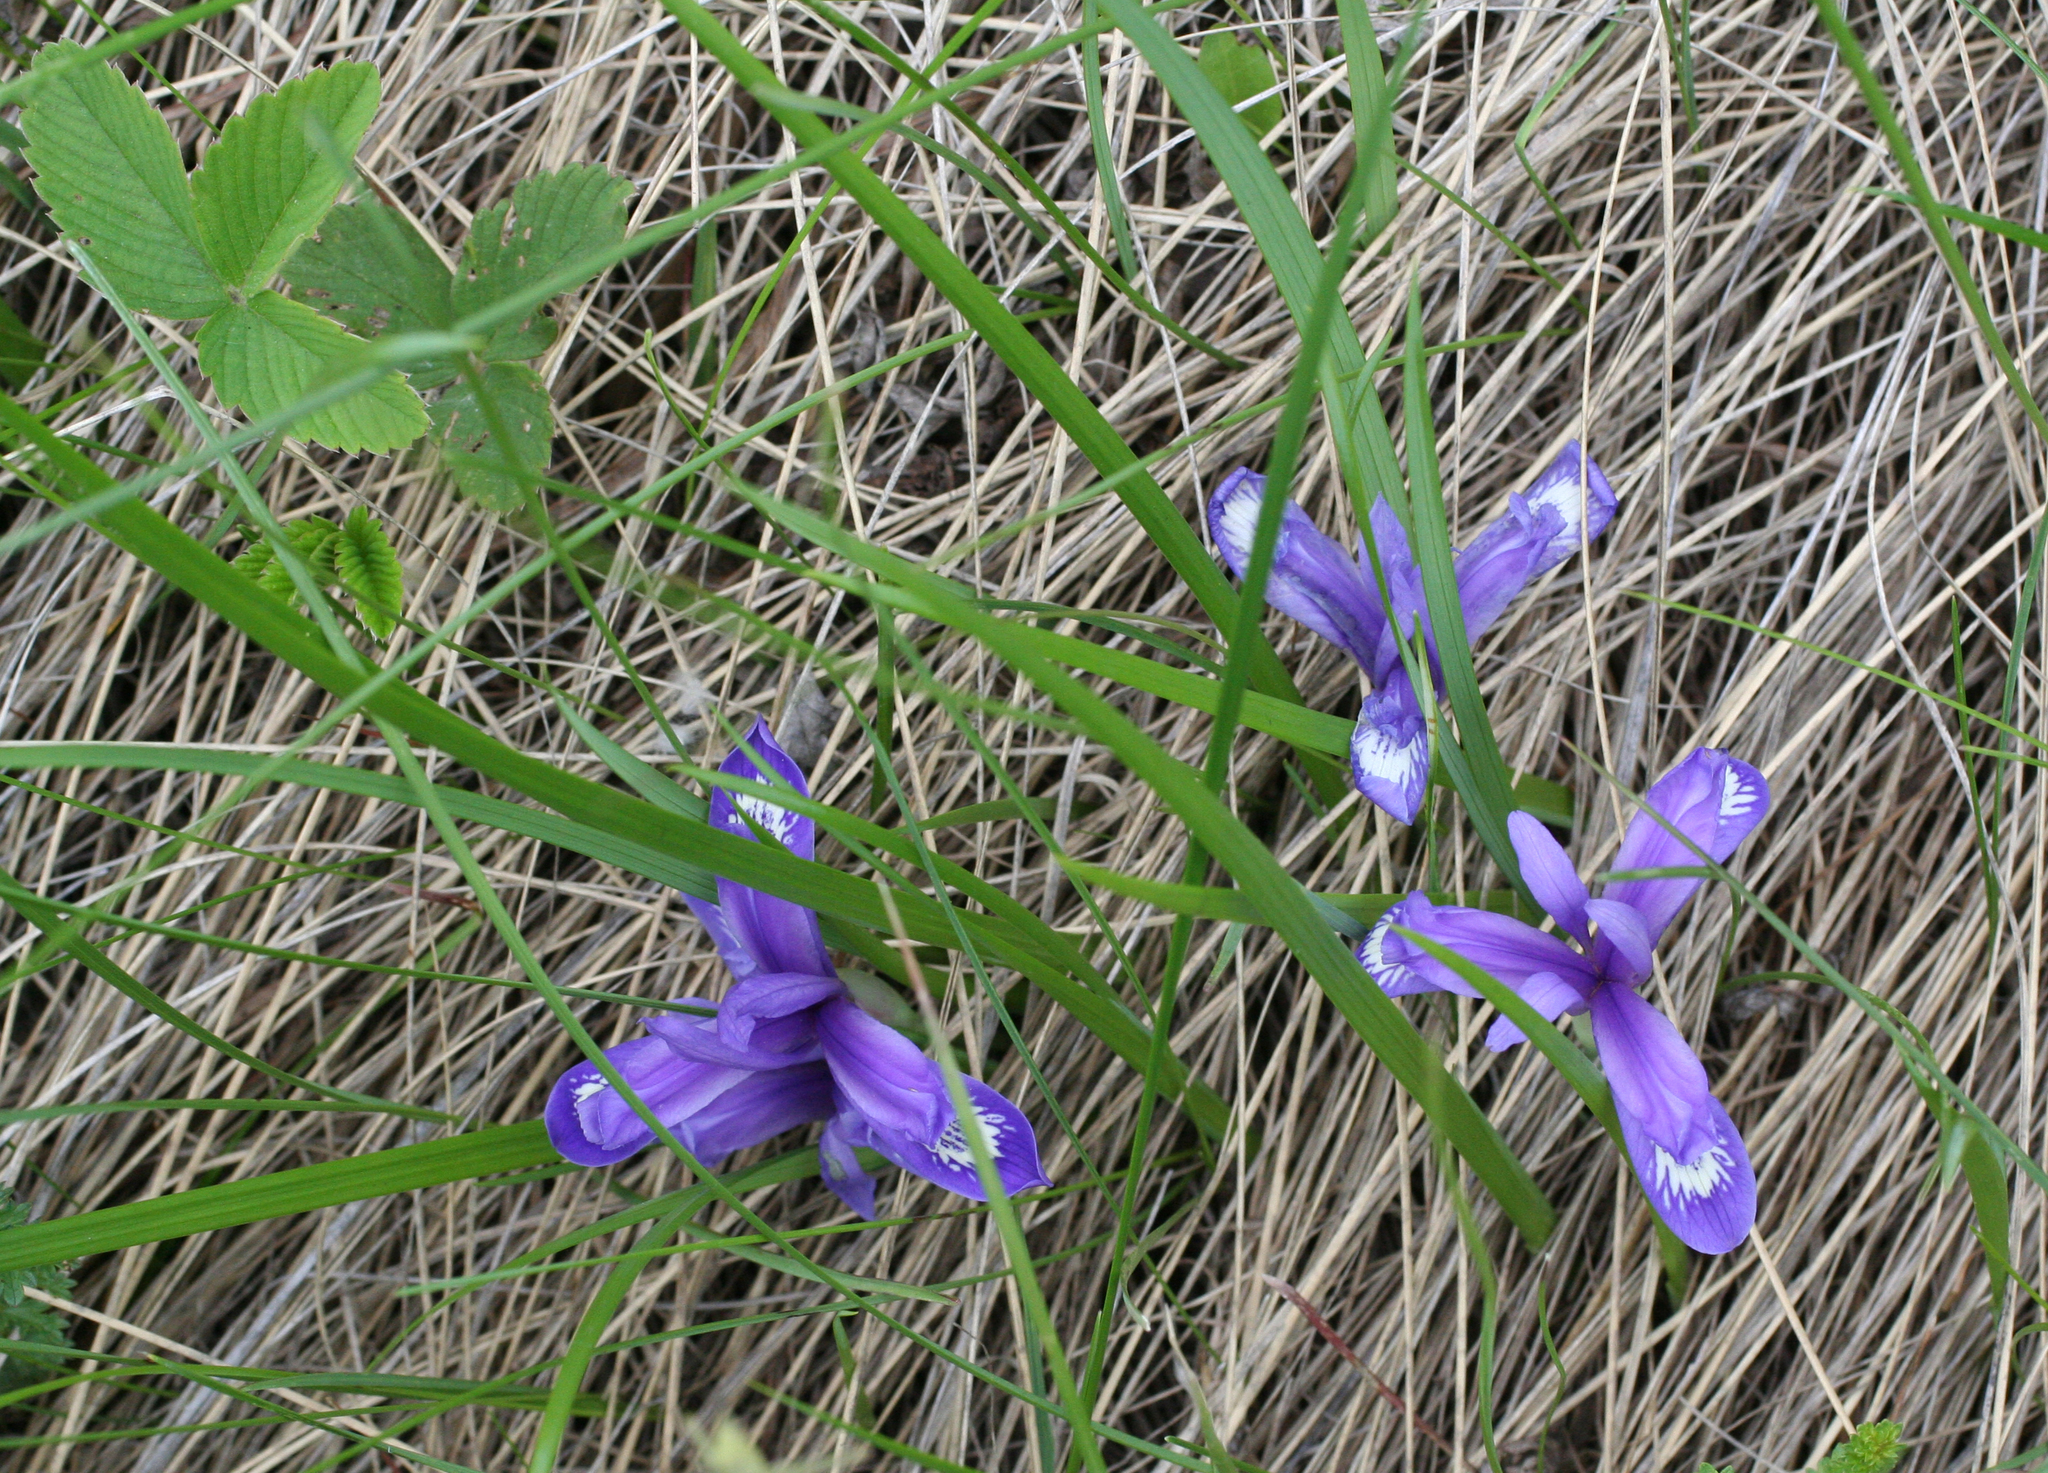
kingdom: Plantae
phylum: Tracheophyta
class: Liliopsida
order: Asparagales
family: Iridaceae
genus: Iris
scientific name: Iris ruthenica
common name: Purple-bract iris
